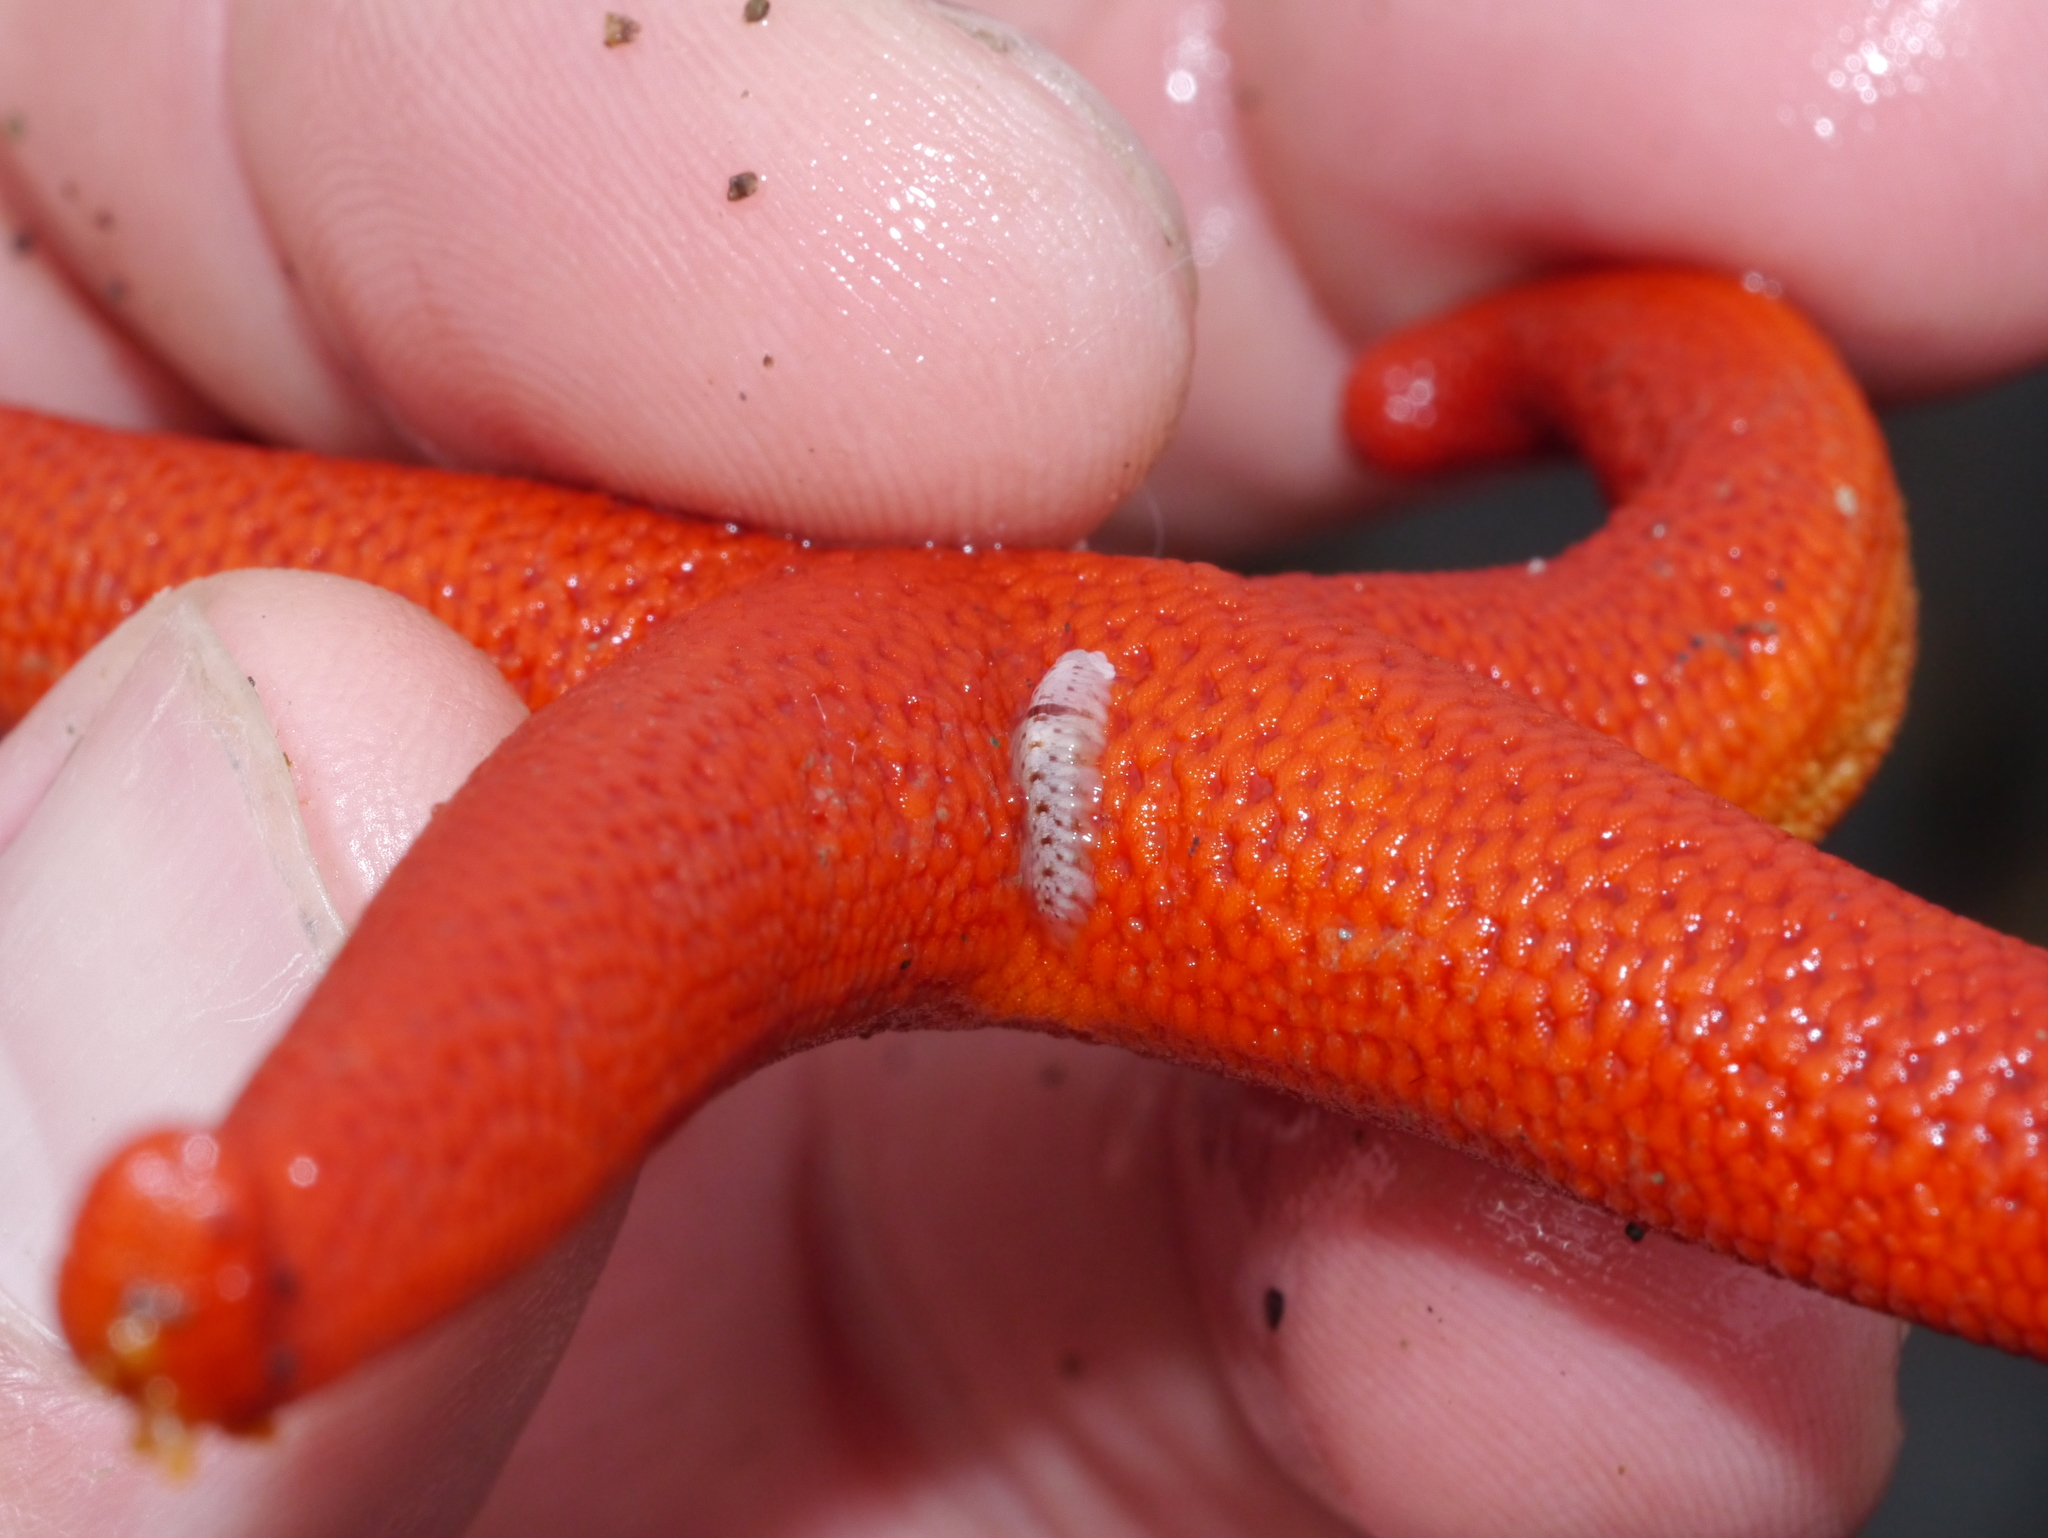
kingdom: Animalia
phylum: Annelida
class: Polychaeta
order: Phyllodocida
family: Polynoidae
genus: Arctonoe
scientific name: Arctonoe vittata
